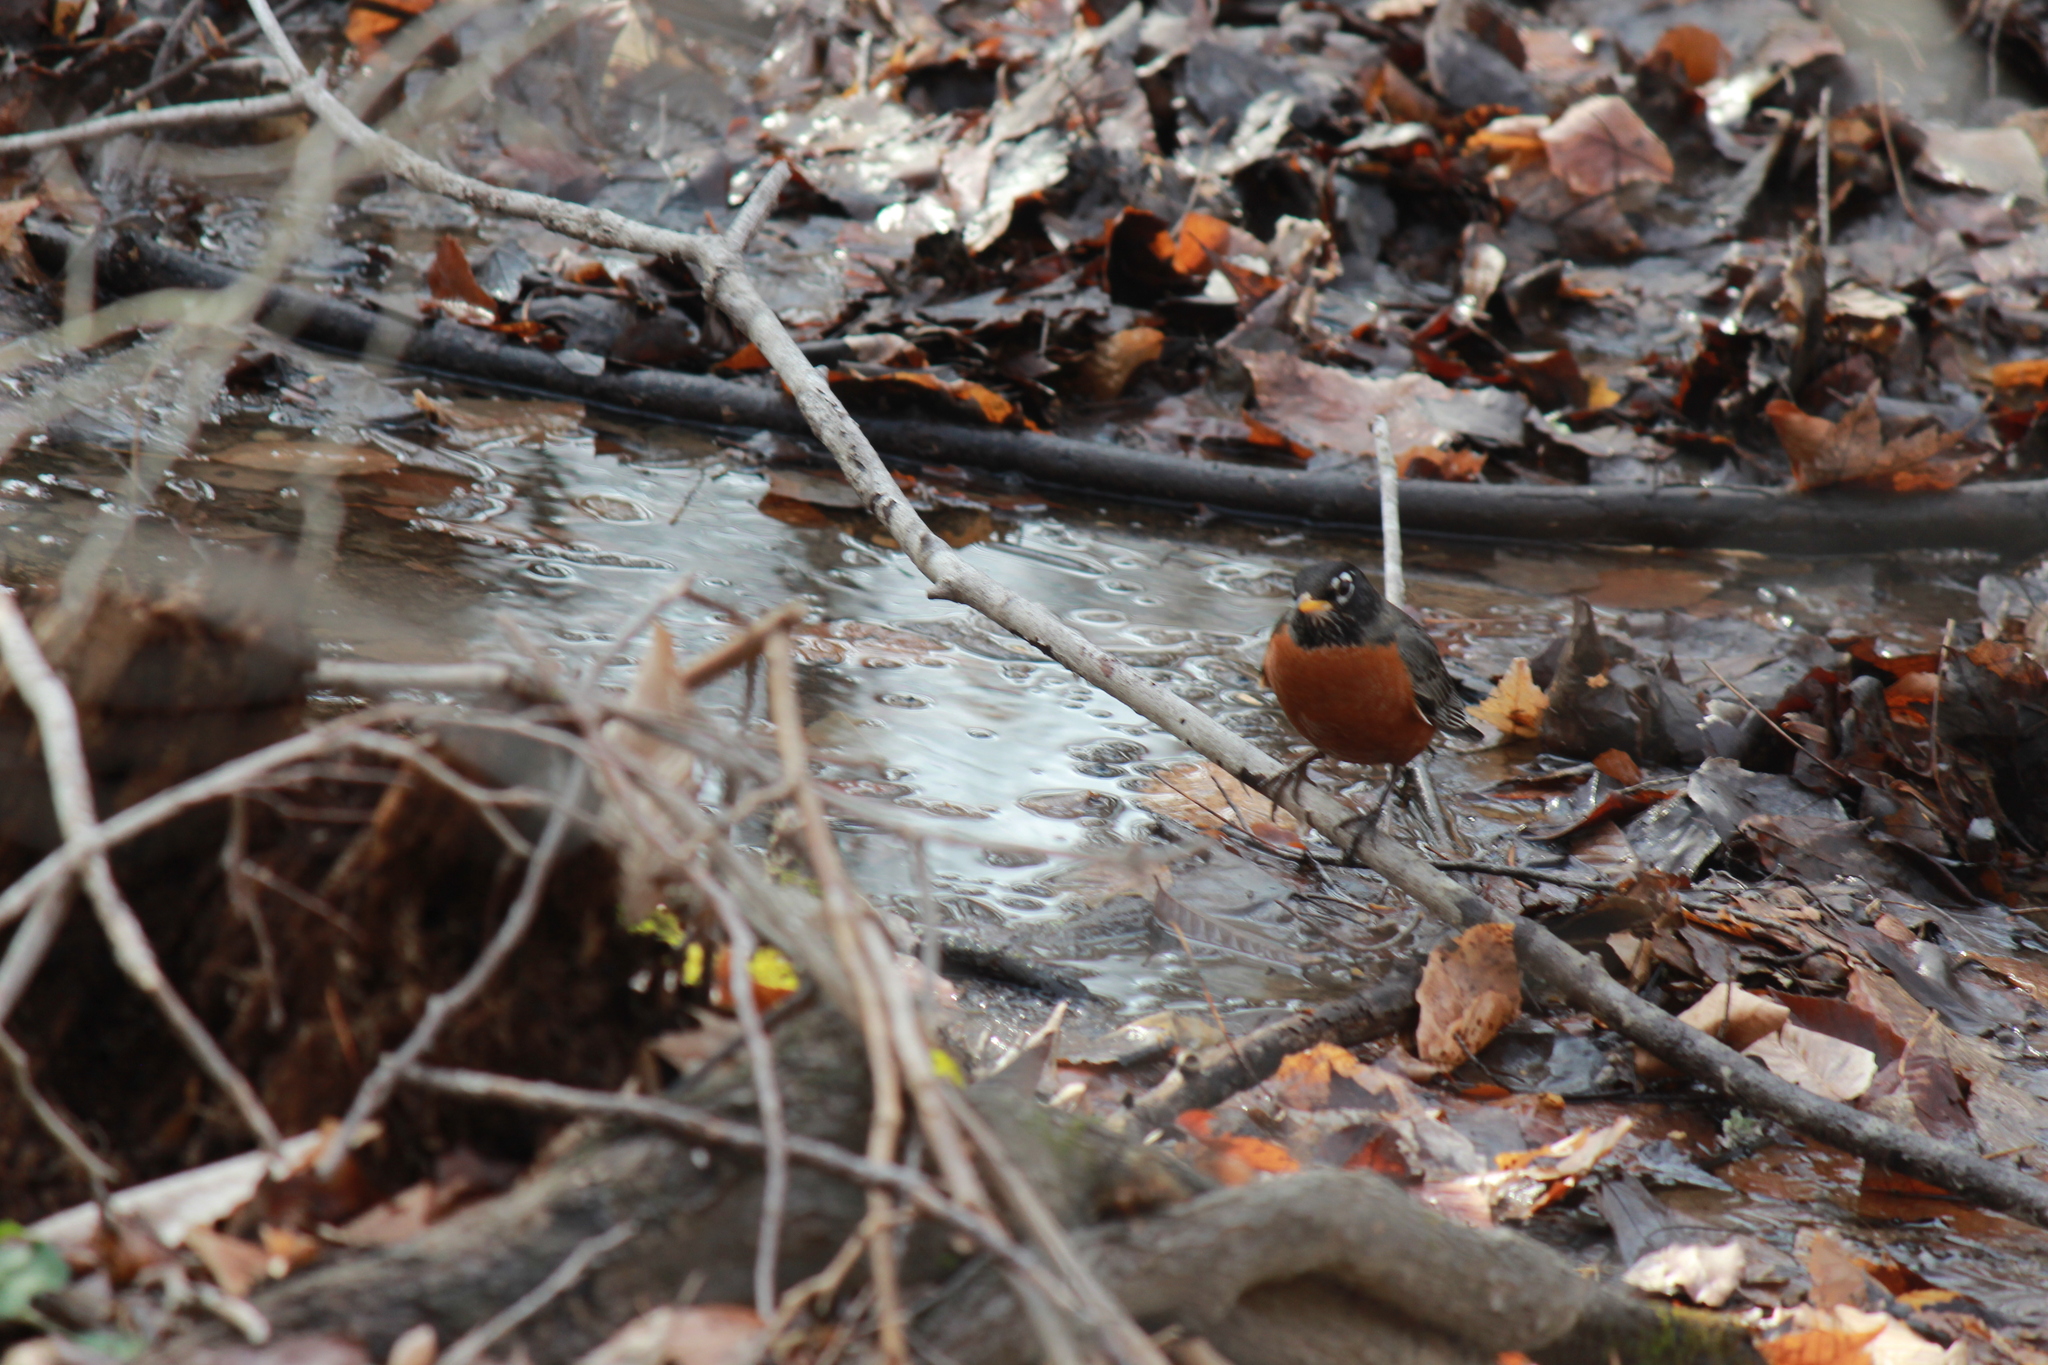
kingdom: Animalia
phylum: Chordata
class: Aves
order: Passeriformes
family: Turdidae
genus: Turdus
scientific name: Turdus migratorius
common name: American robin
